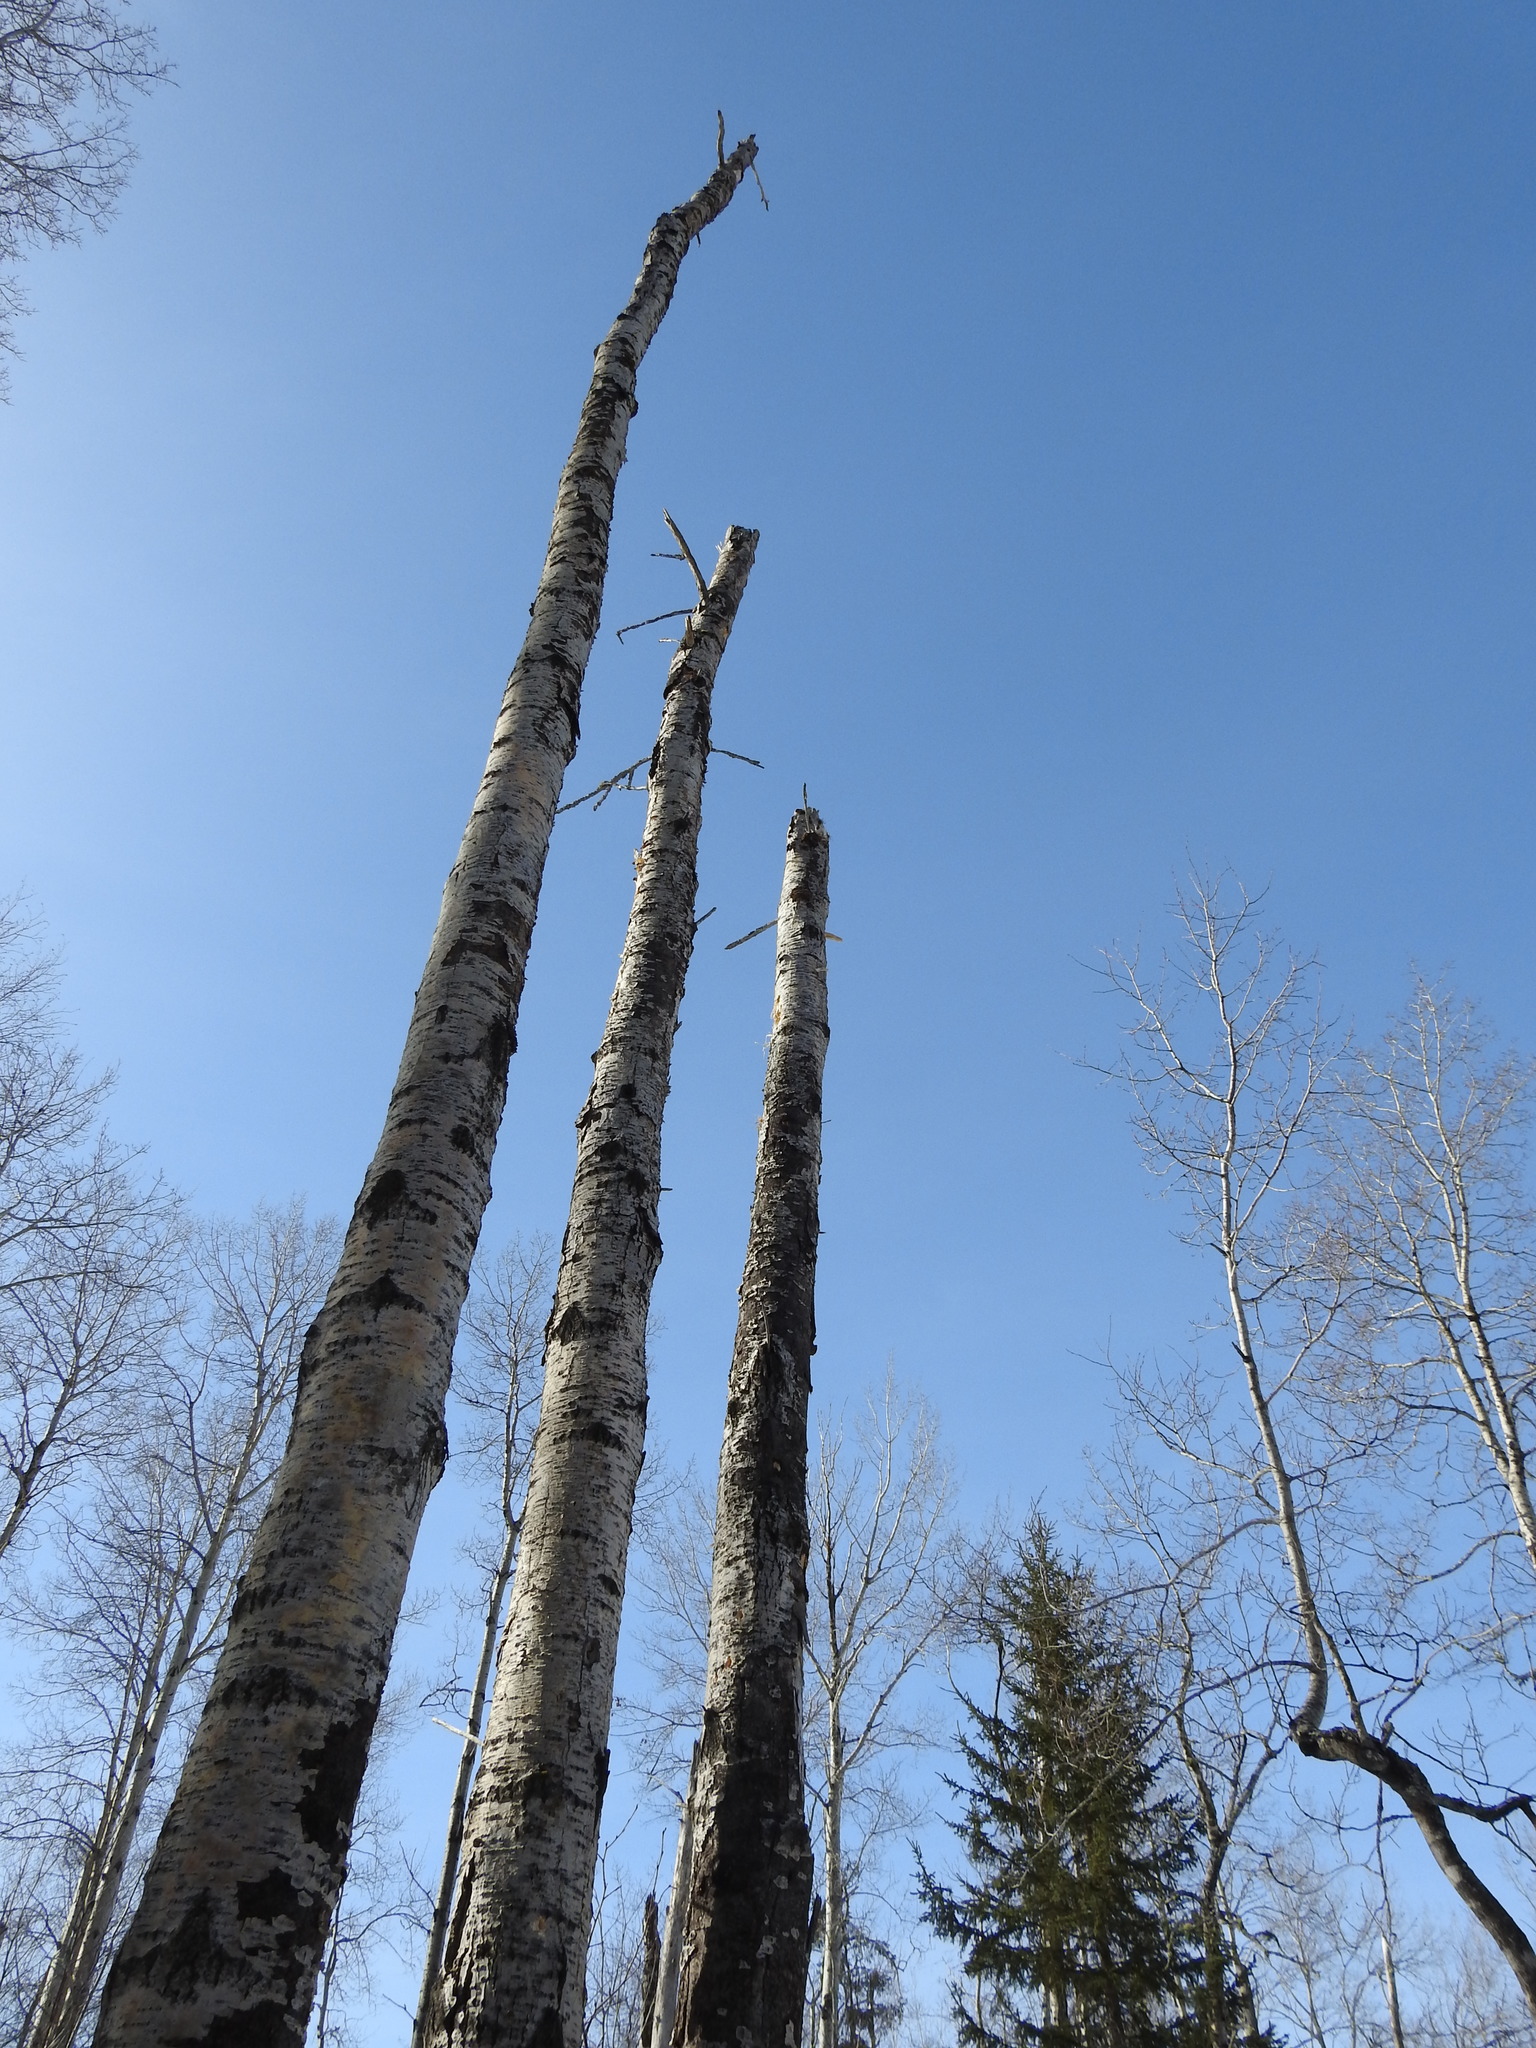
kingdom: Plantae
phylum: Tracheophyta
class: Magnoliopsida
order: Malpighiales
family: Salicaceae
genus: Populus
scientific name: Populus tremuloides
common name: Quaking aspen
